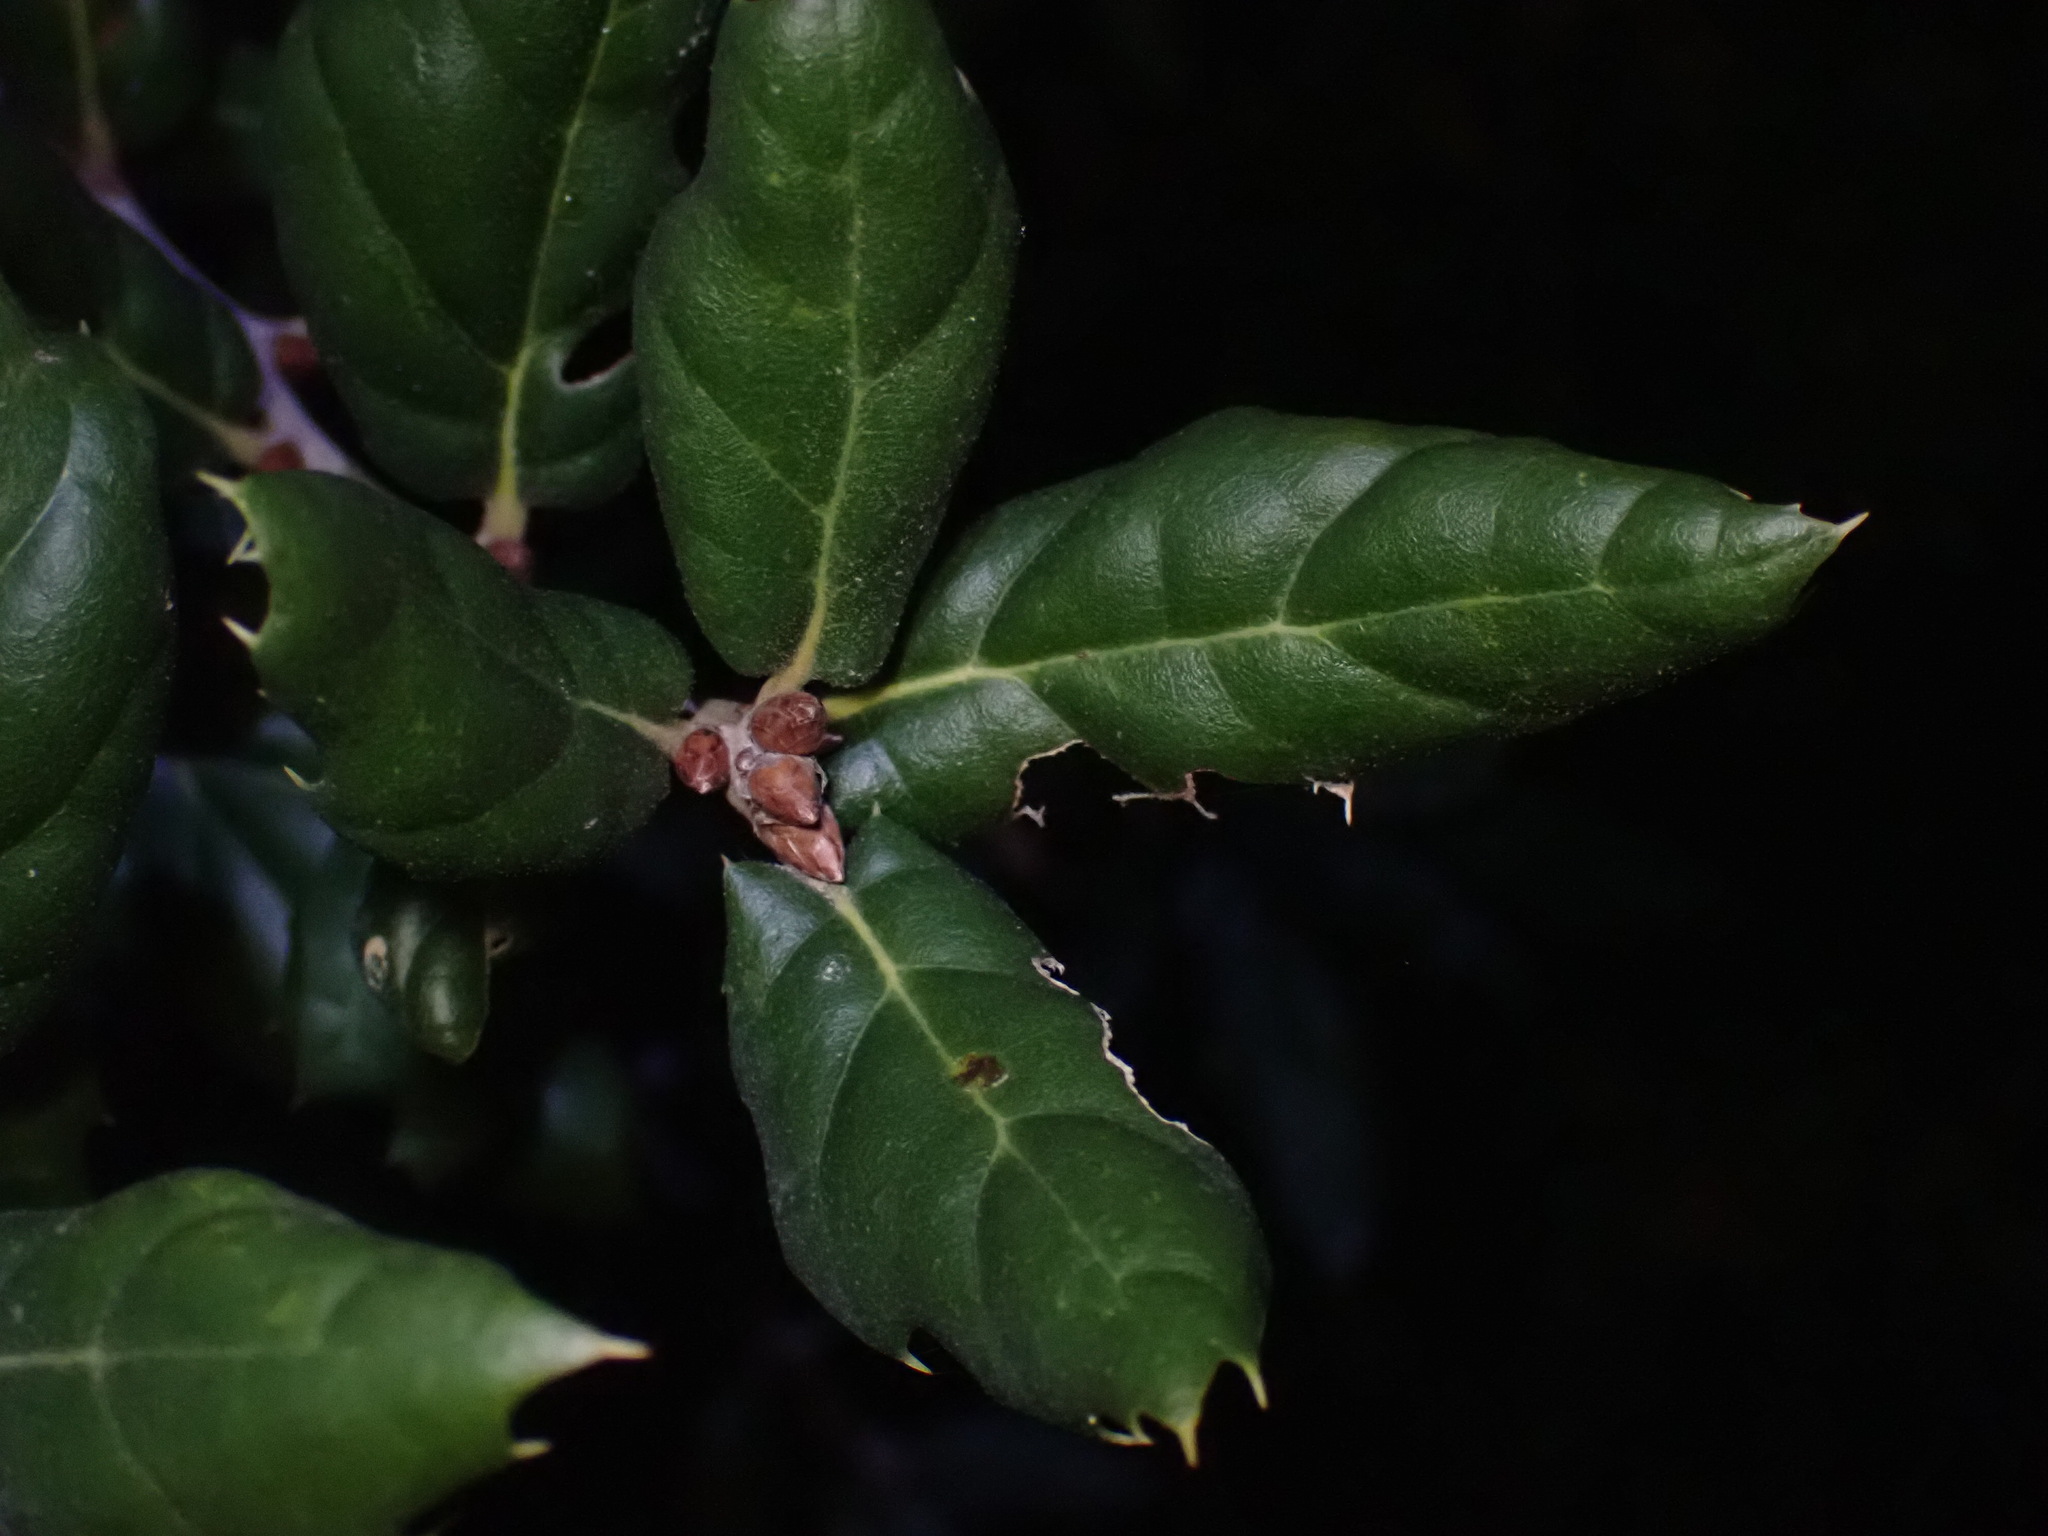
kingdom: Plantae
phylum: Tracheophyta
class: Magnoliopsida
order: Fagales
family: Fagaceae
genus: Quercus
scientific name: Quercus agrifolia
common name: California live oak
